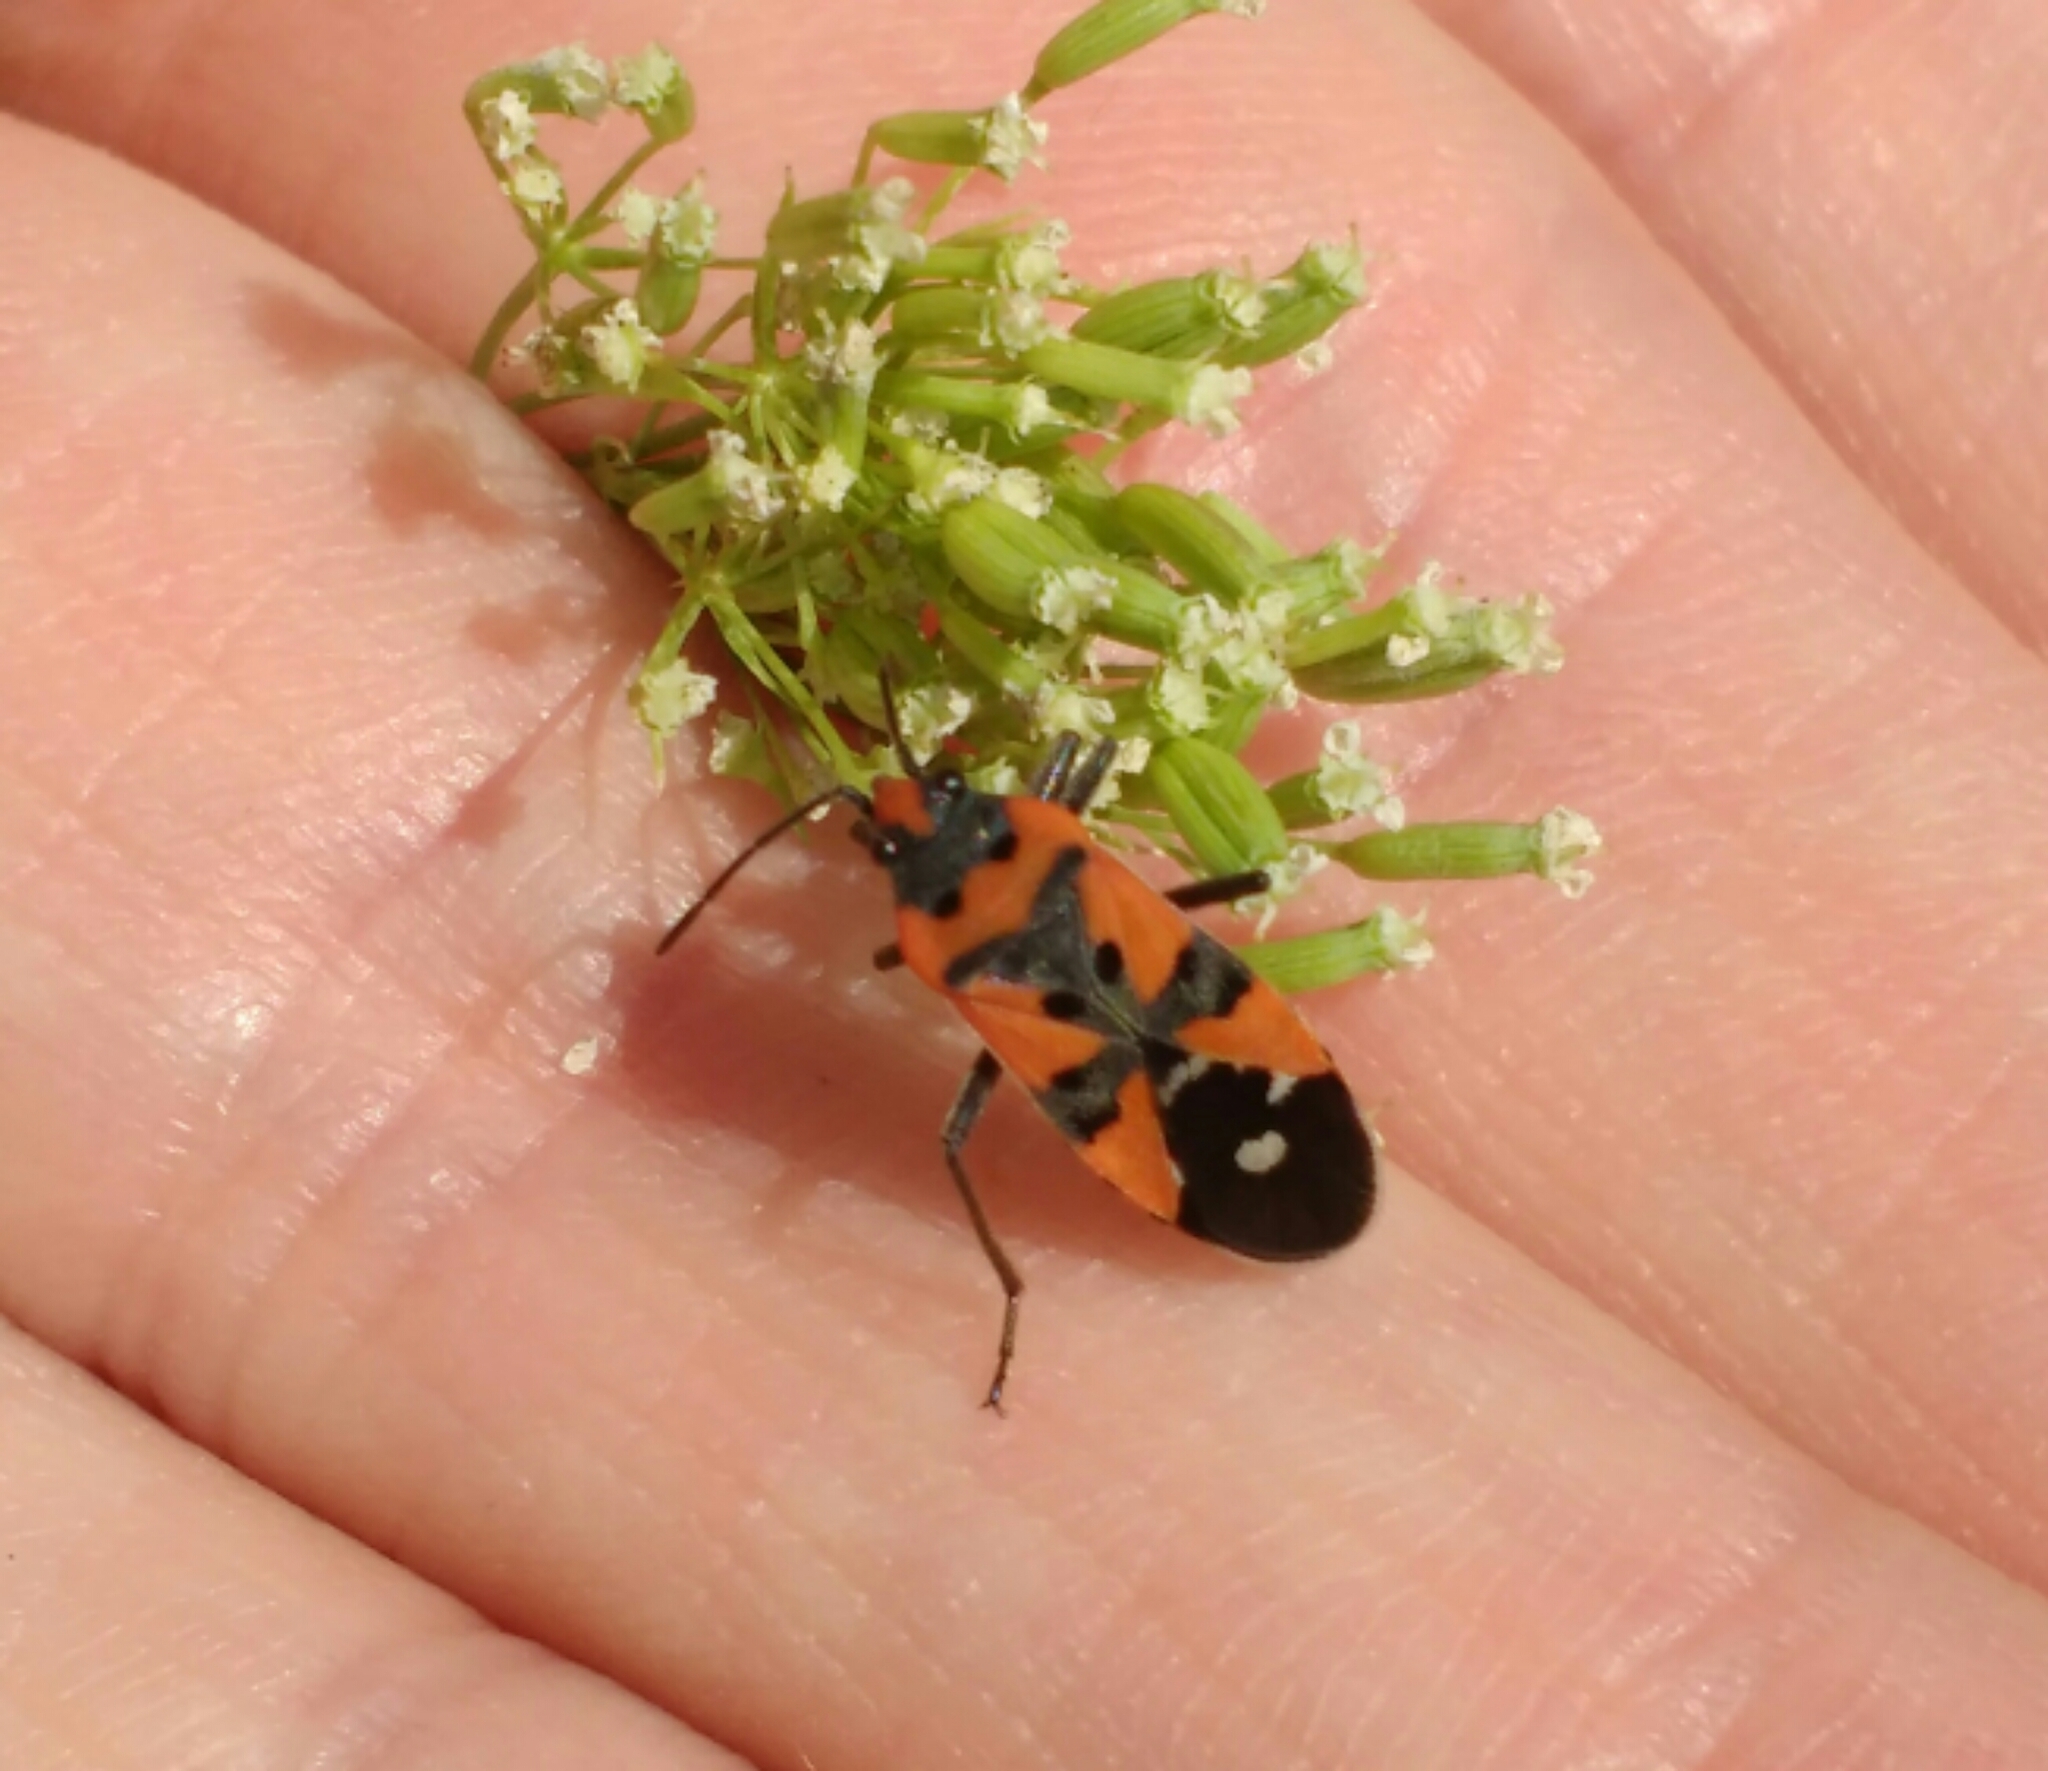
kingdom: Animalia
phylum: Arthropoda
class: Insecta
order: Hemiptera
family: Lygaeidae
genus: Lygaeus
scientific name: Lygaeus
